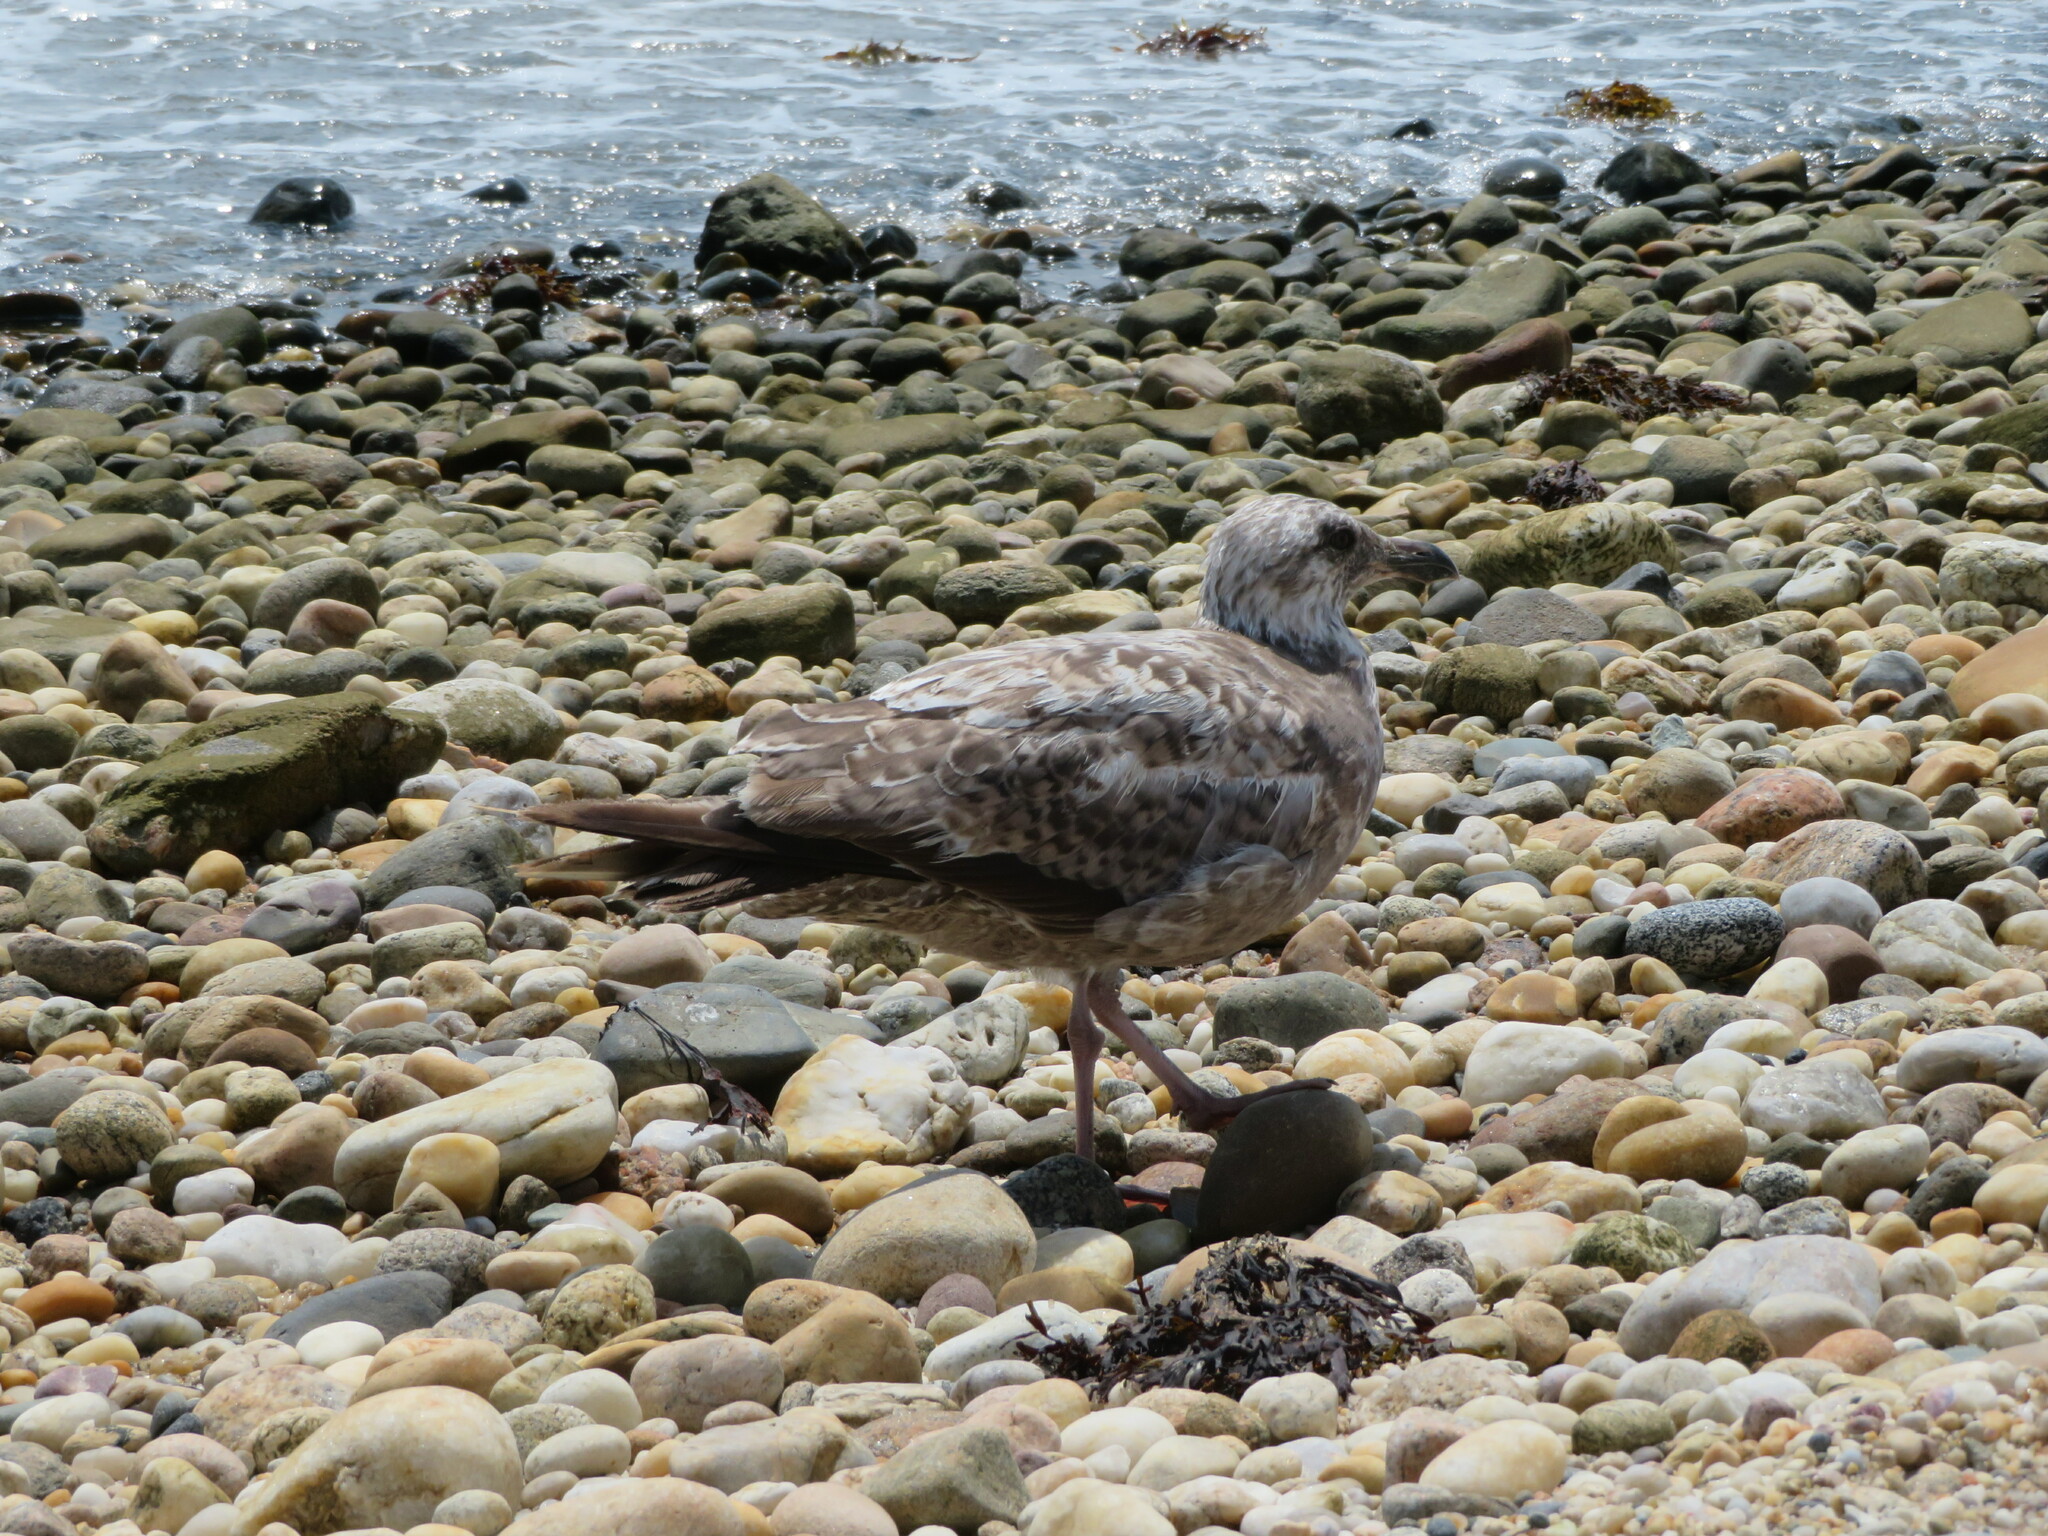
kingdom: Animalia
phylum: Chordata
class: Aves
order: Charadriiformes
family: Laridae
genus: Larus
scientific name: Larus argentatus
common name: Herring gull
